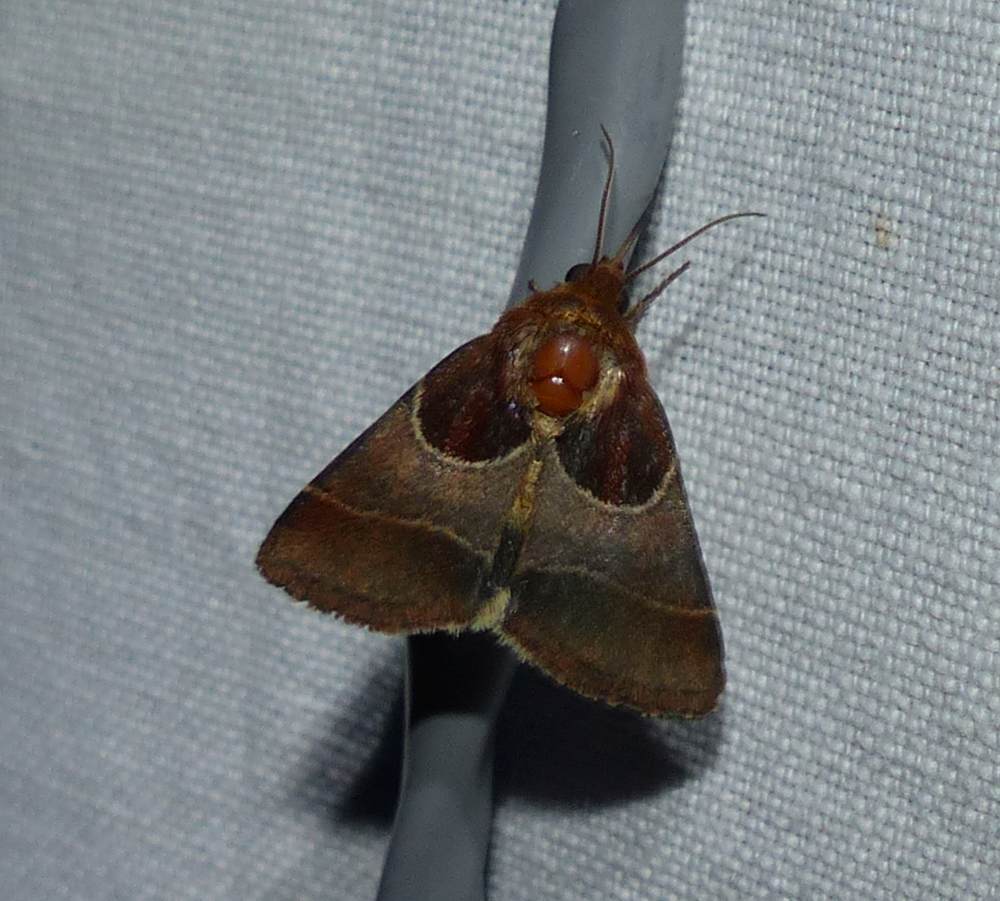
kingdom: Animalia
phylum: Arthropoda
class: Insecta
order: Lepidoptera
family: Noctuidae
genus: Schinia
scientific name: Schinia arcigera
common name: Arcigera flower moth
